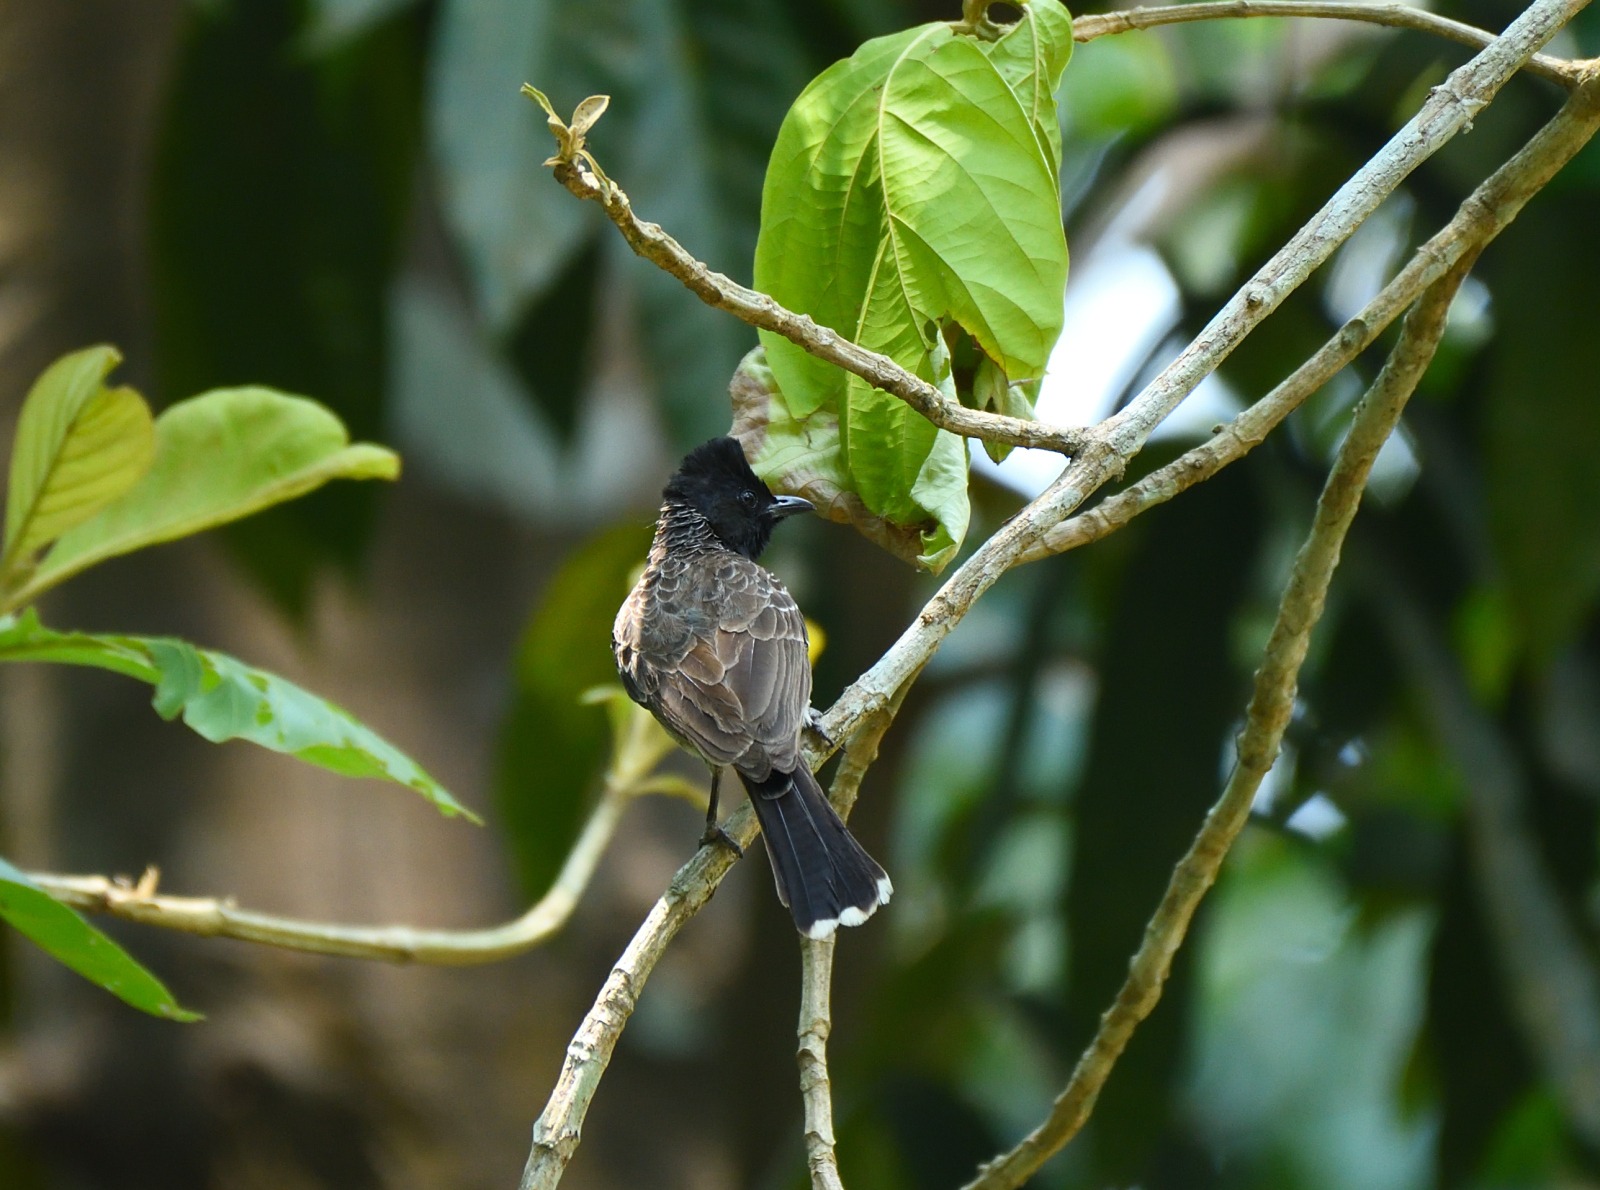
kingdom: Animalia
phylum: Chordata
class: Aves
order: Passeriformes
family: Pycnonotidae
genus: Pycnonotus
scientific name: Pycnonotus cafer
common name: Red-vented bulbul
